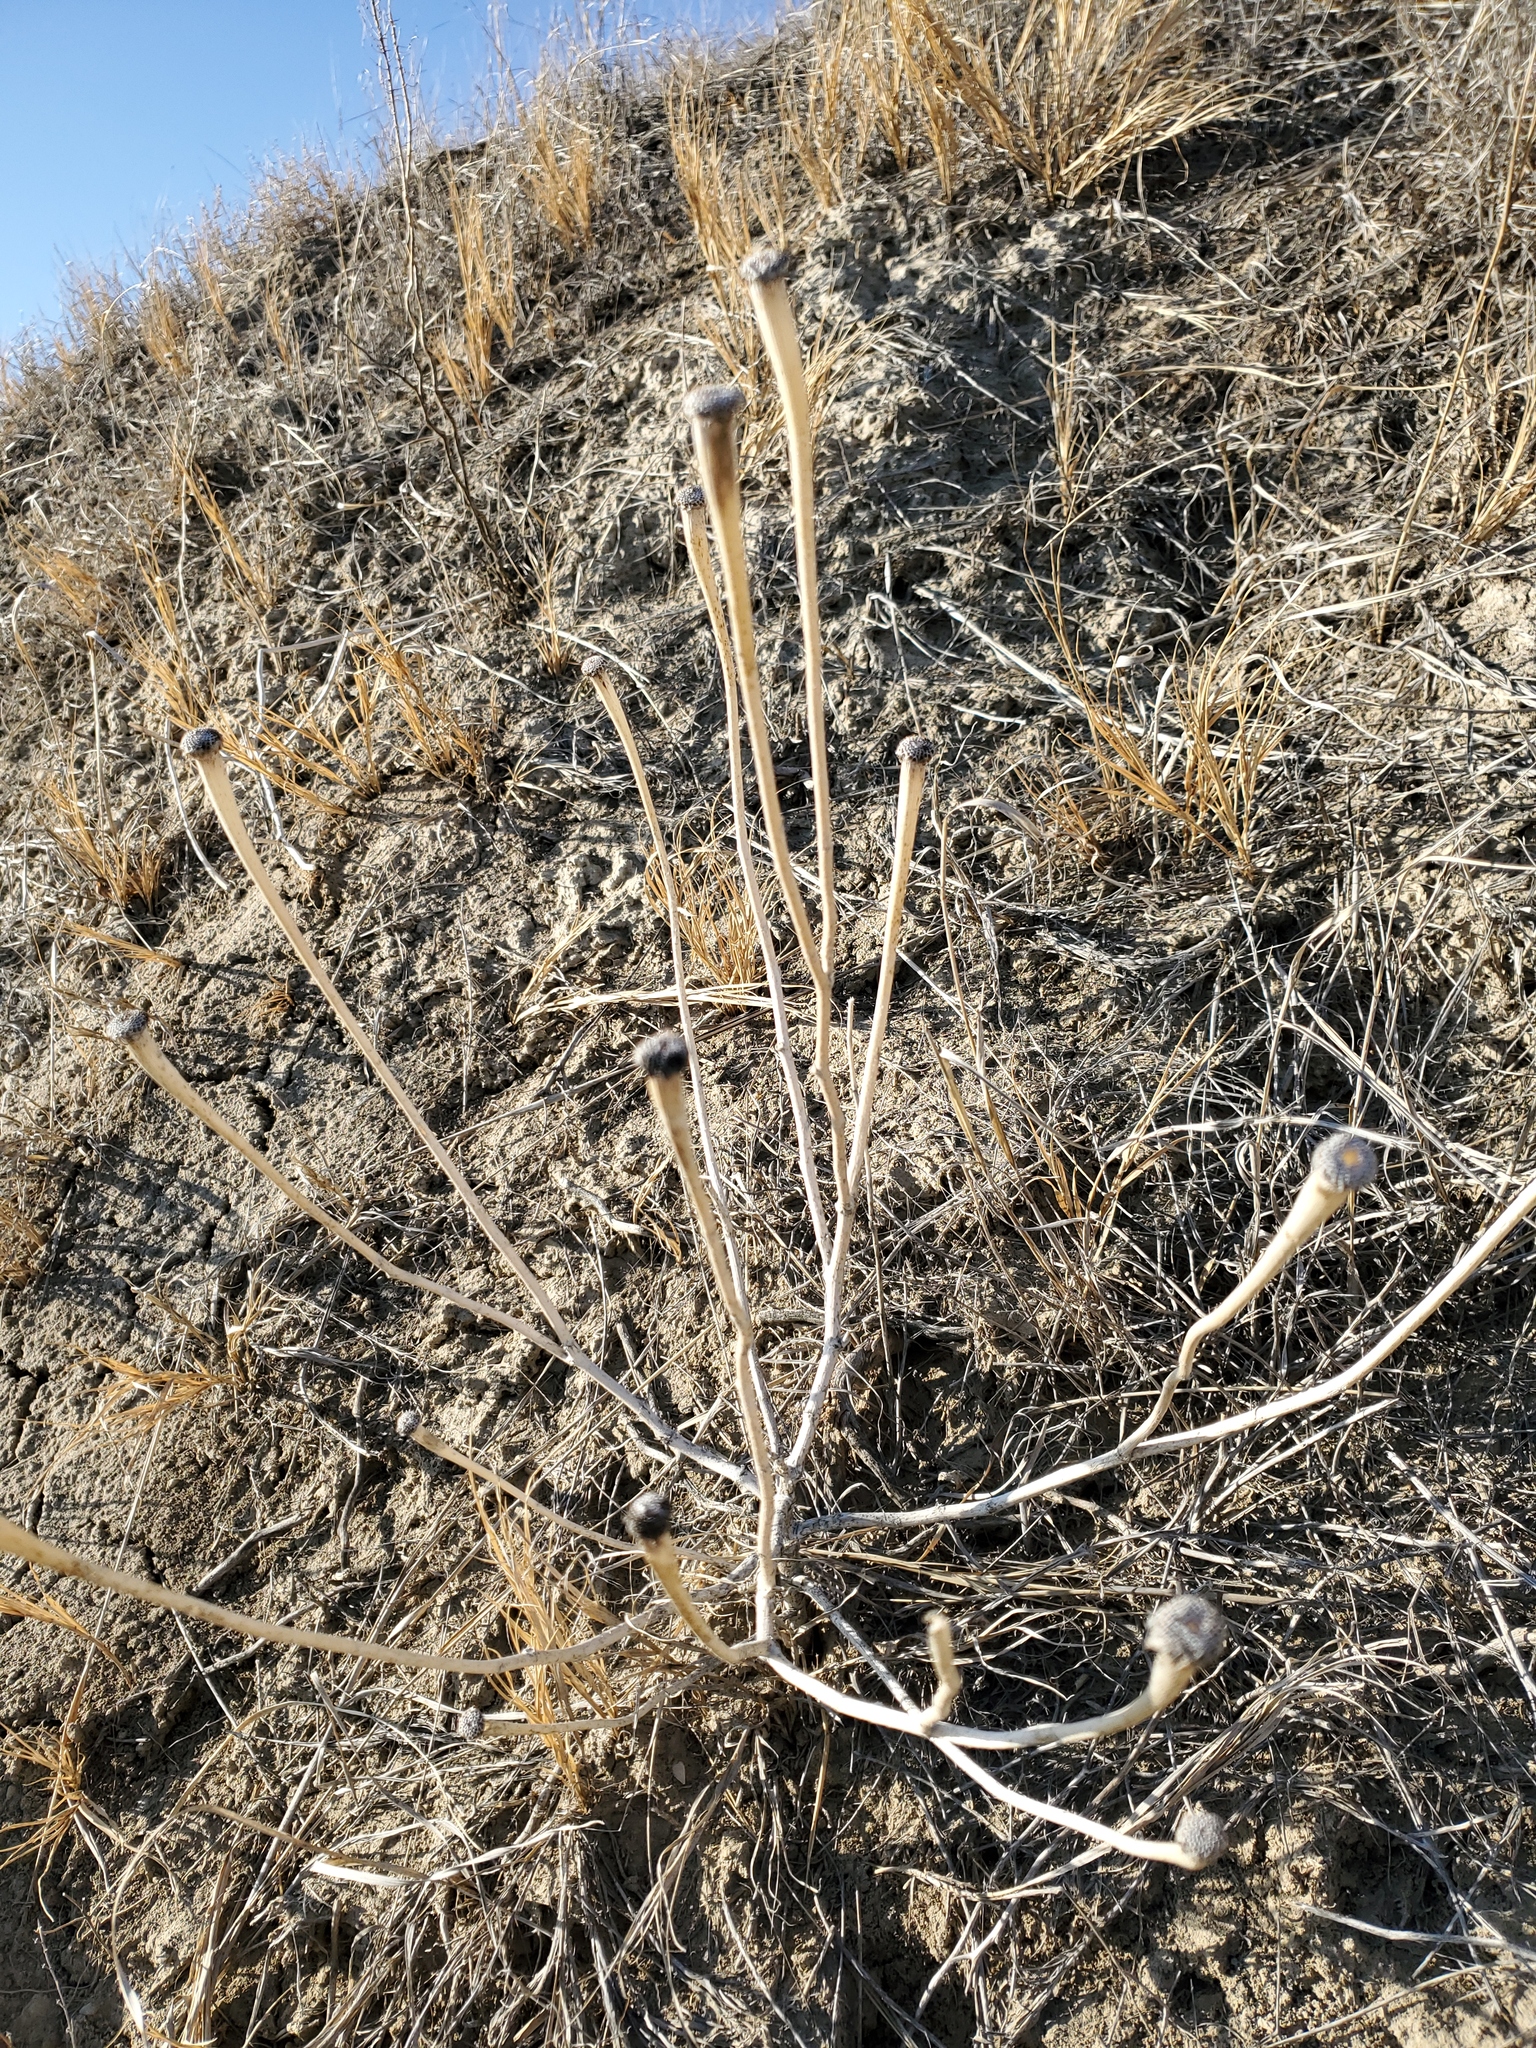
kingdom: Plantae
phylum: Tracheophyta
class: Magnoliopsida
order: Asterales
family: Asteraceae
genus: Tragopogon
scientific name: Tragopogon dubius
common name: Yellow salsify
